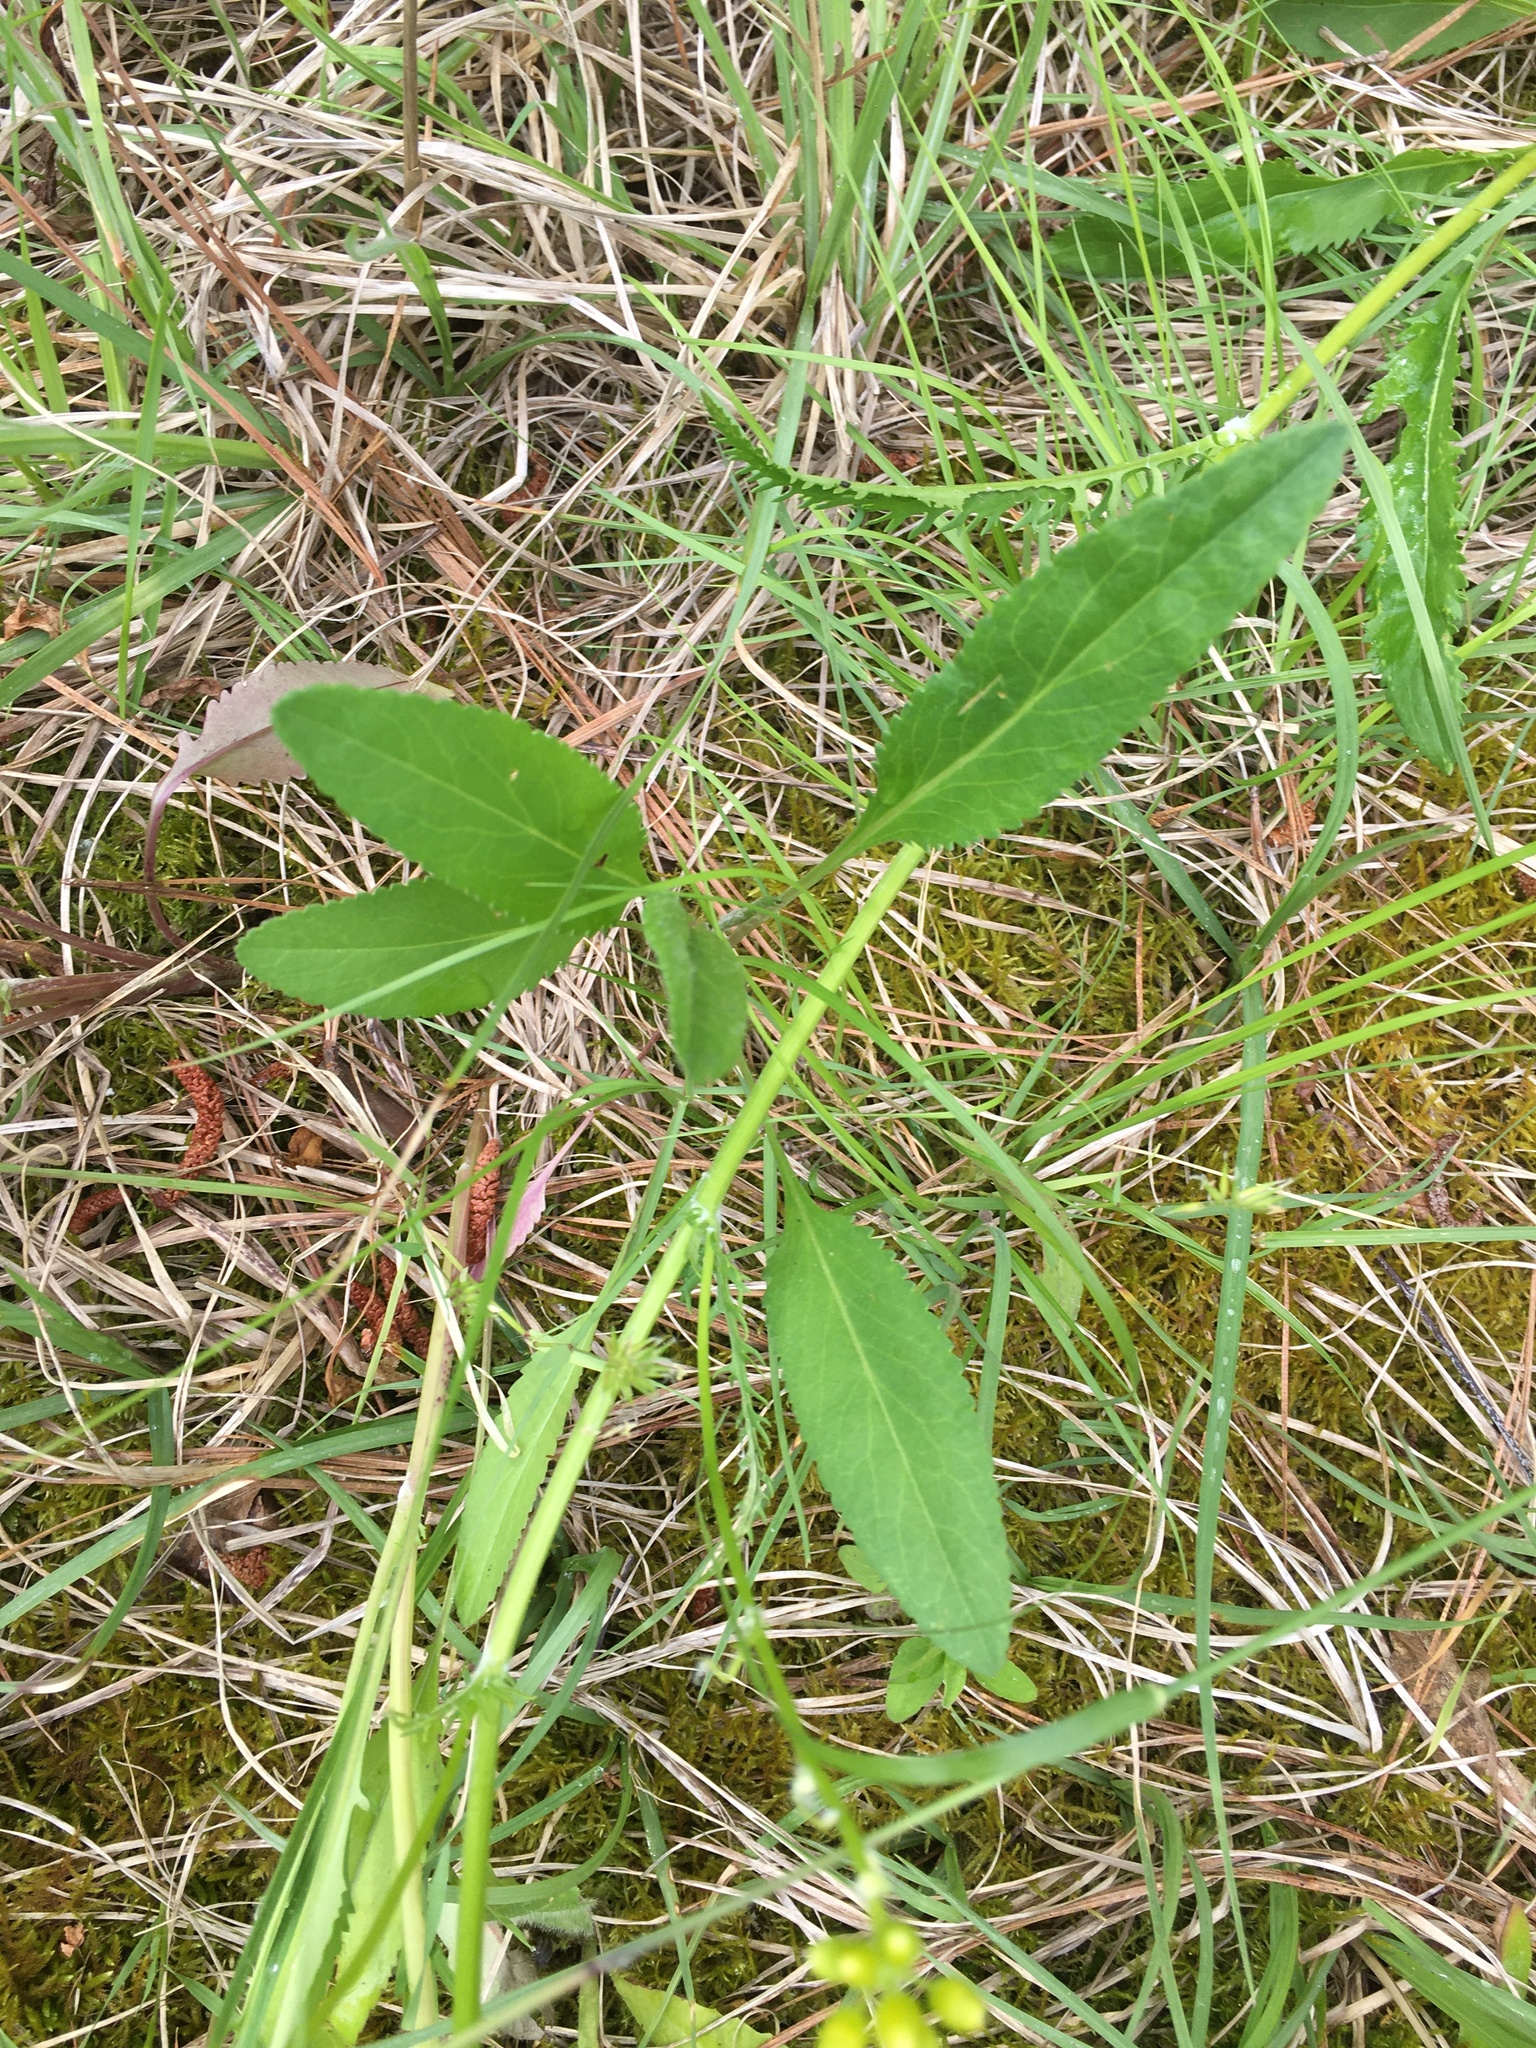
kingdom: Plantae
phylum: Tracheophyta
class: Magnoliopsida
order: Asterales
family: Asteraceae
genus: Packera
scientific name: Packera anonyma
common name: Small ragwort
